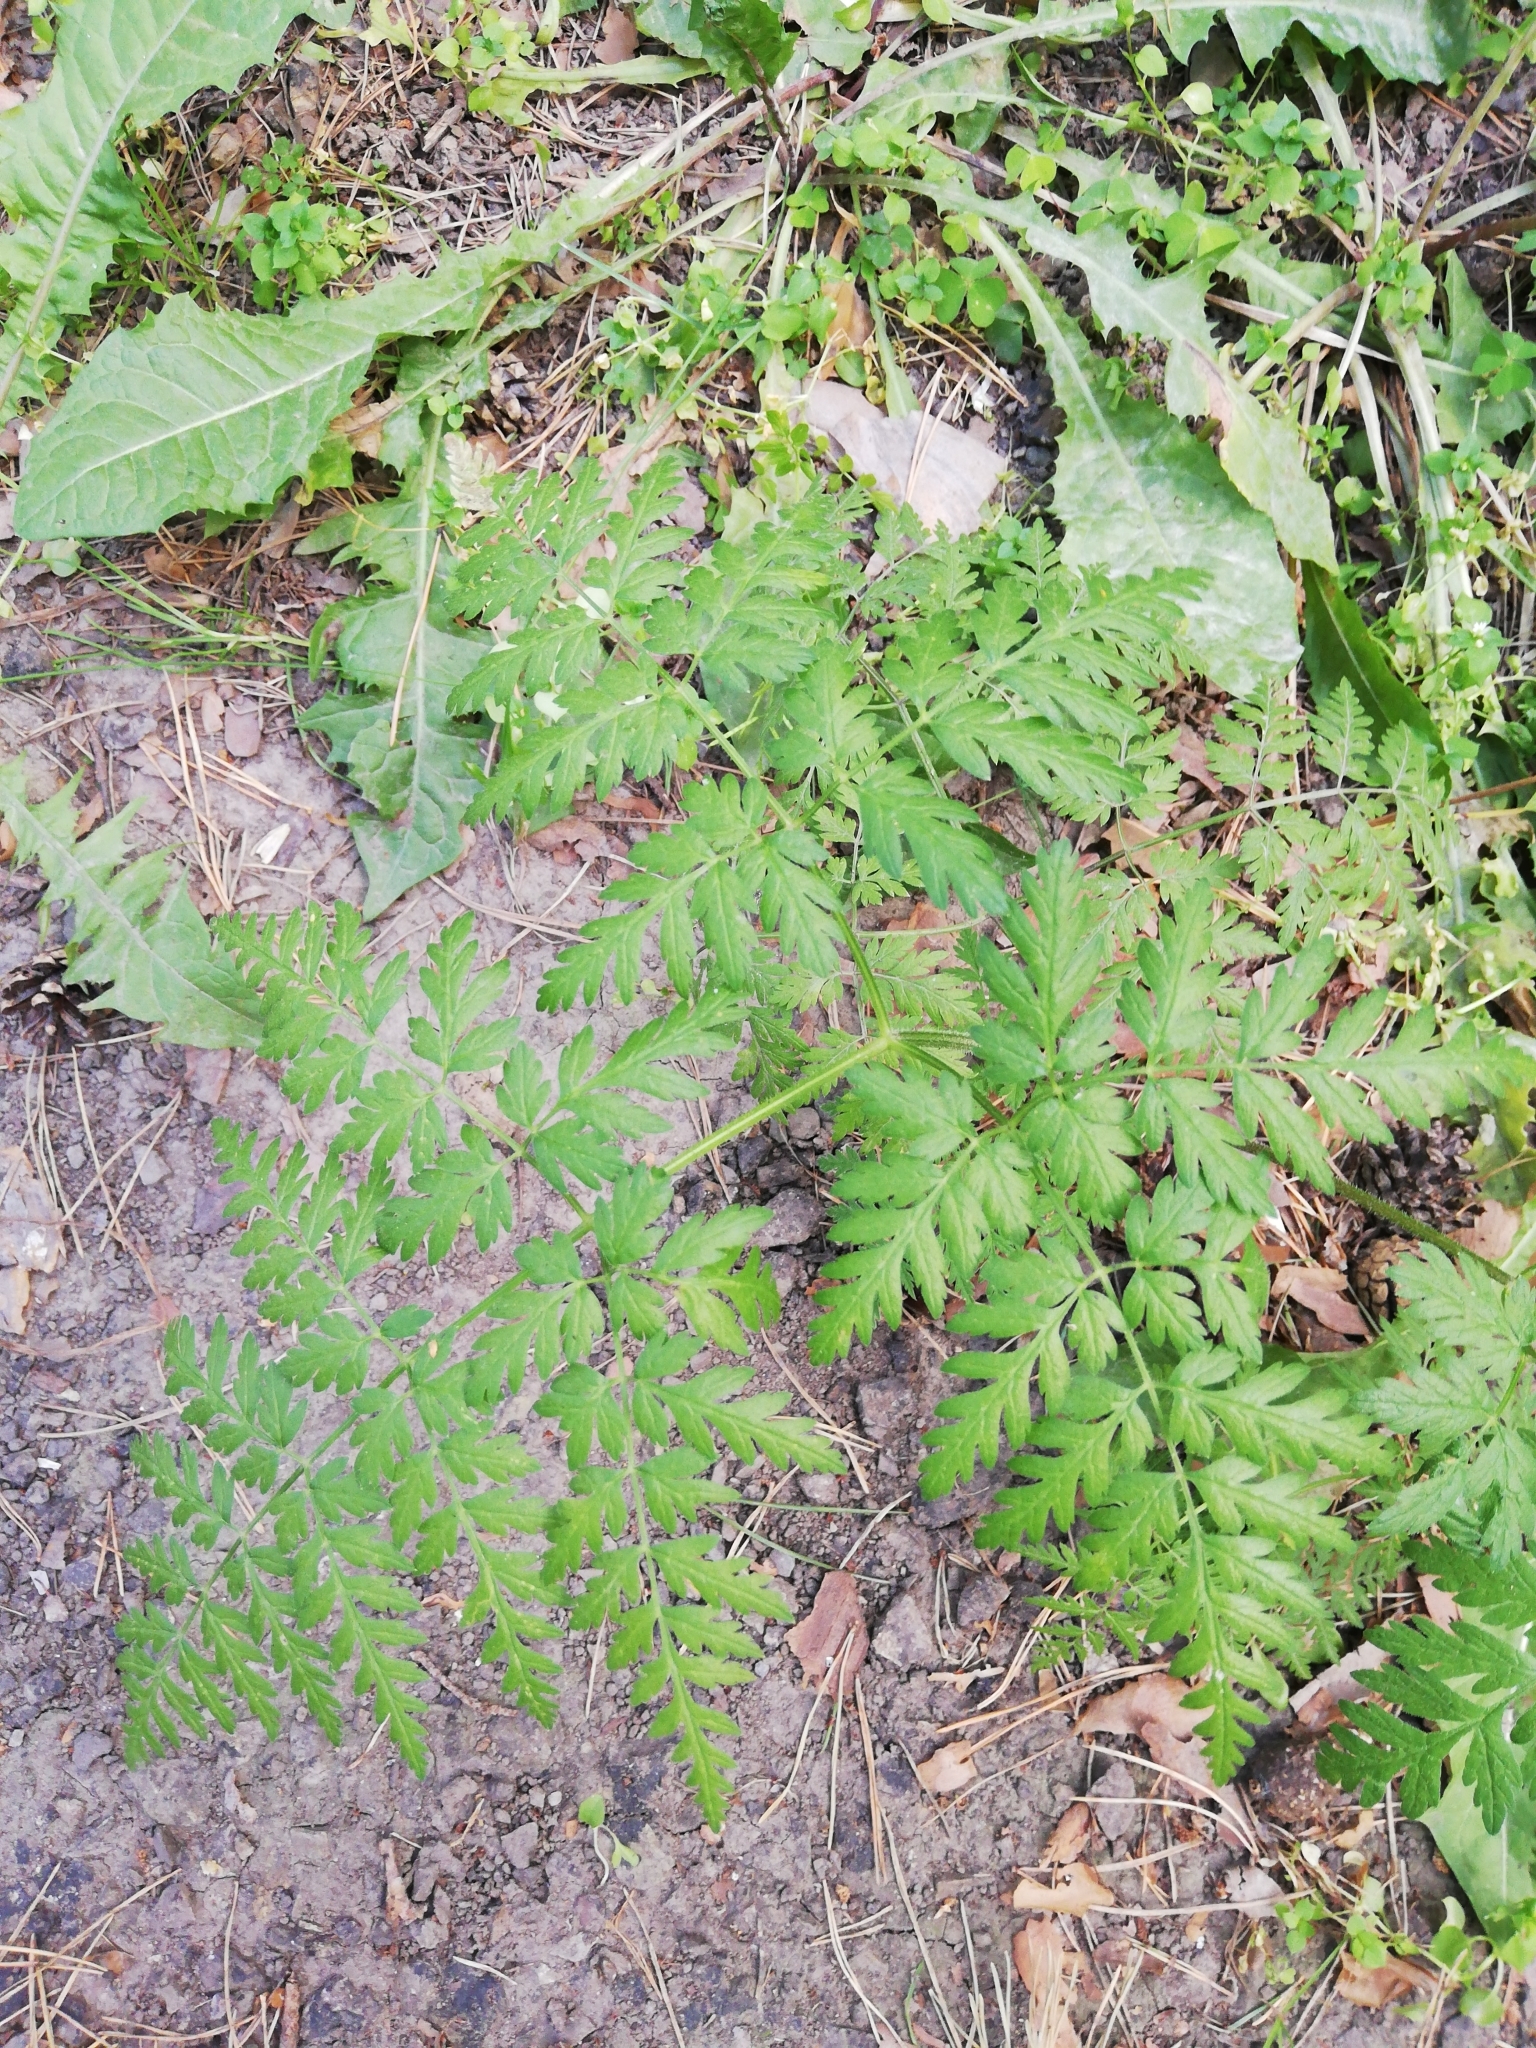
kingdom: Plantae
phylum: Tracheophyta
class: Magnoliopsida
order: Apiales
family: Apiaceae
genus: Anthriscus
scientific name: Anthriscus sylvestris
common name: Cow parsley
